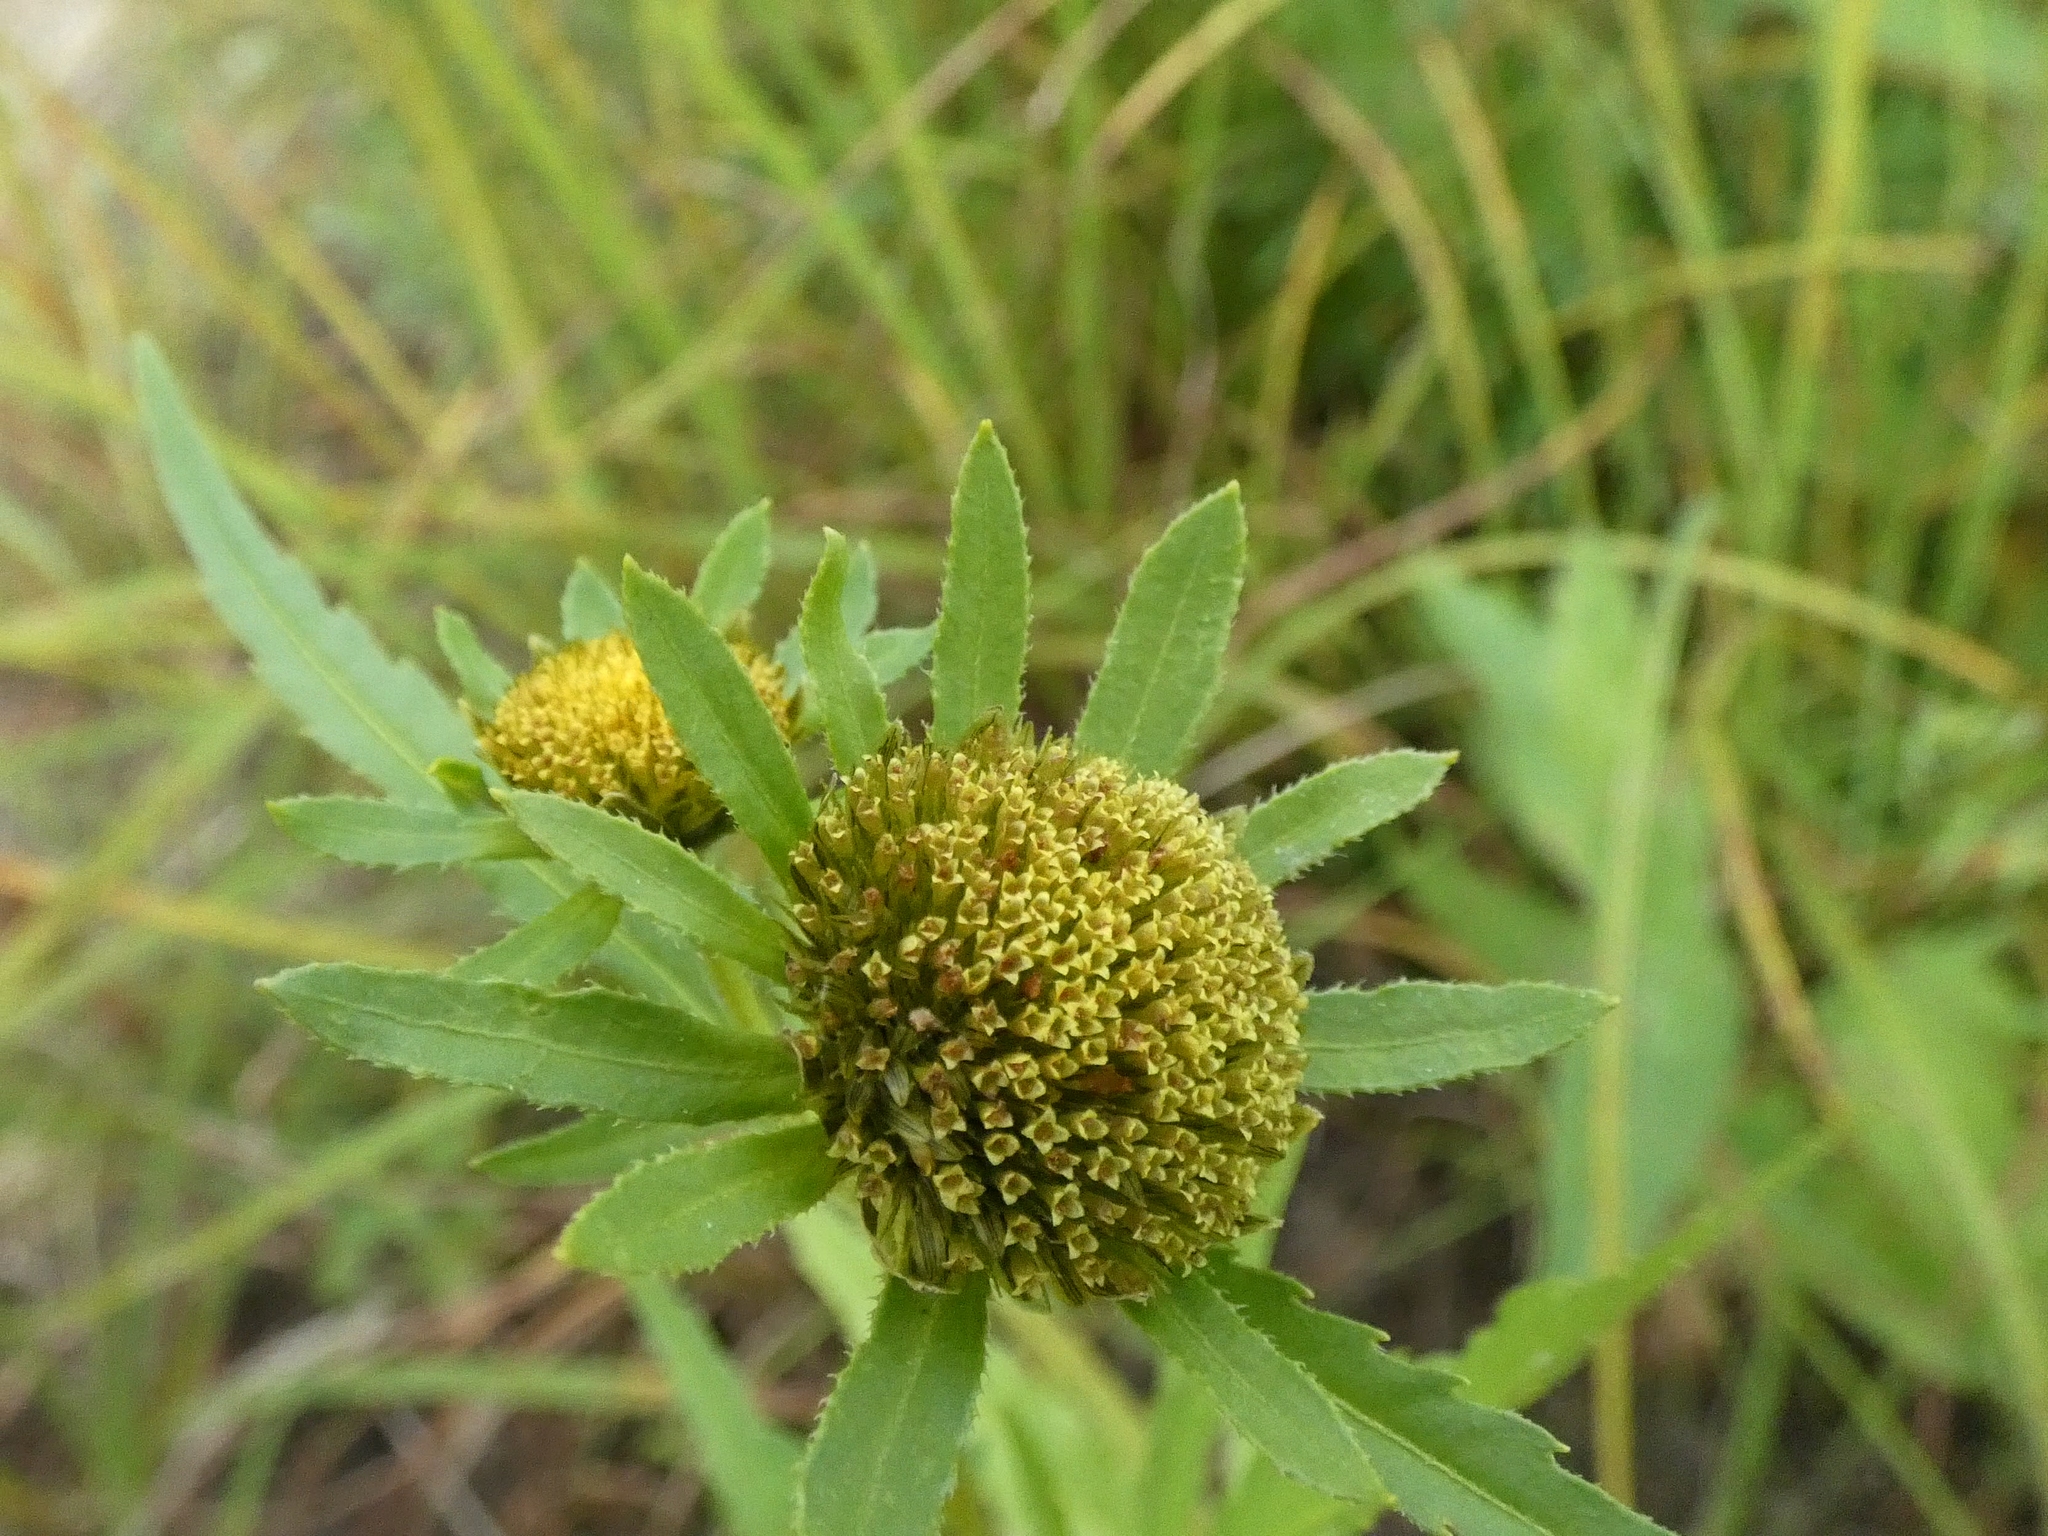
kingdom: Plantae
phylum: Tracheophyta
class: Magnoliopsida
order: Asterales
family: Asteraceae
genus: Bidens
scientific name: Bidens radiata
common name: Radiating bur-marigold
